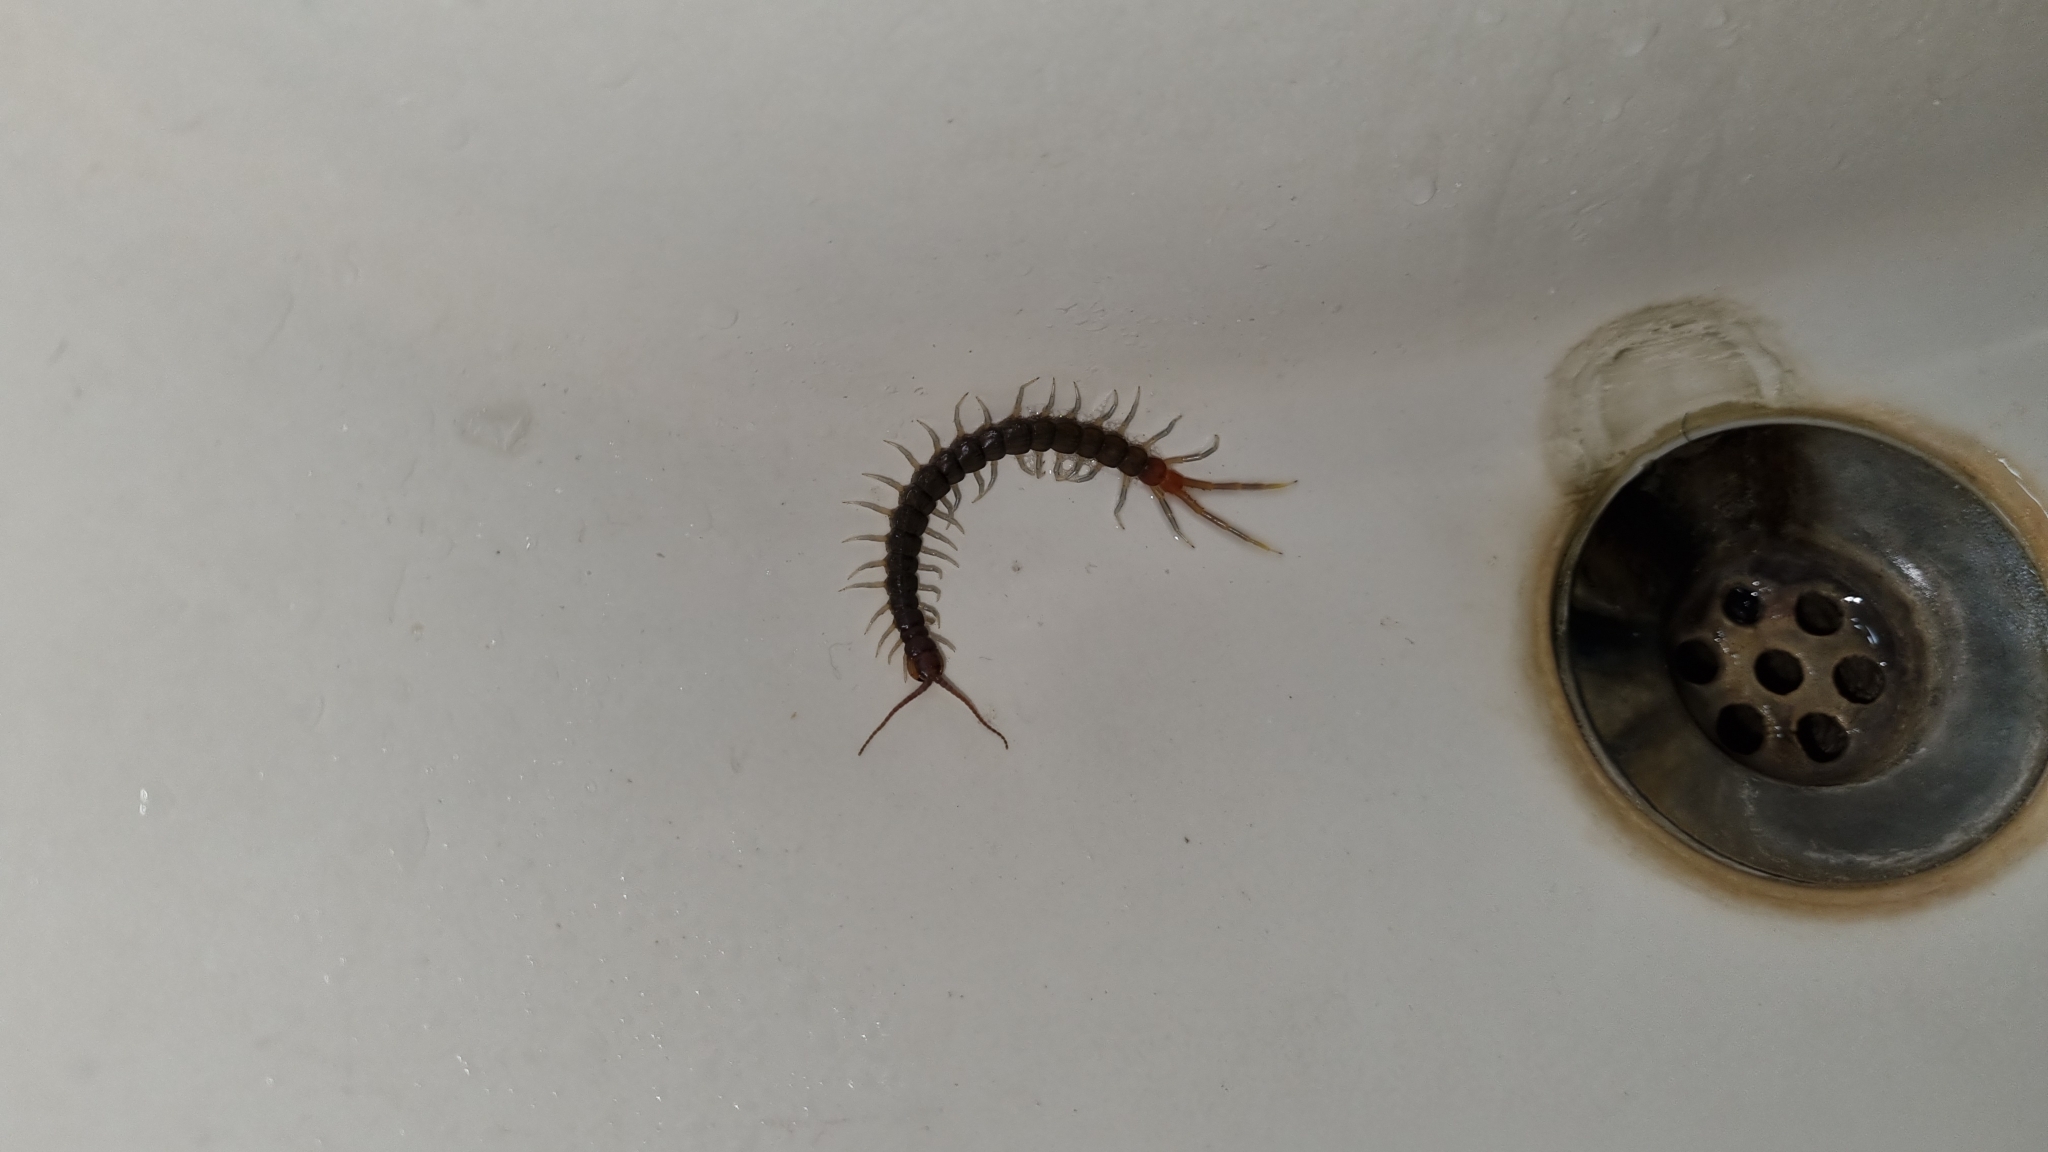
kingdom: Animalia
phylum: Arthropoda
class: Chilopoda
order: Scolopendromorpha
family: Scolopendridae
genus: Rhysida
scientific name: Rhysida longipes
